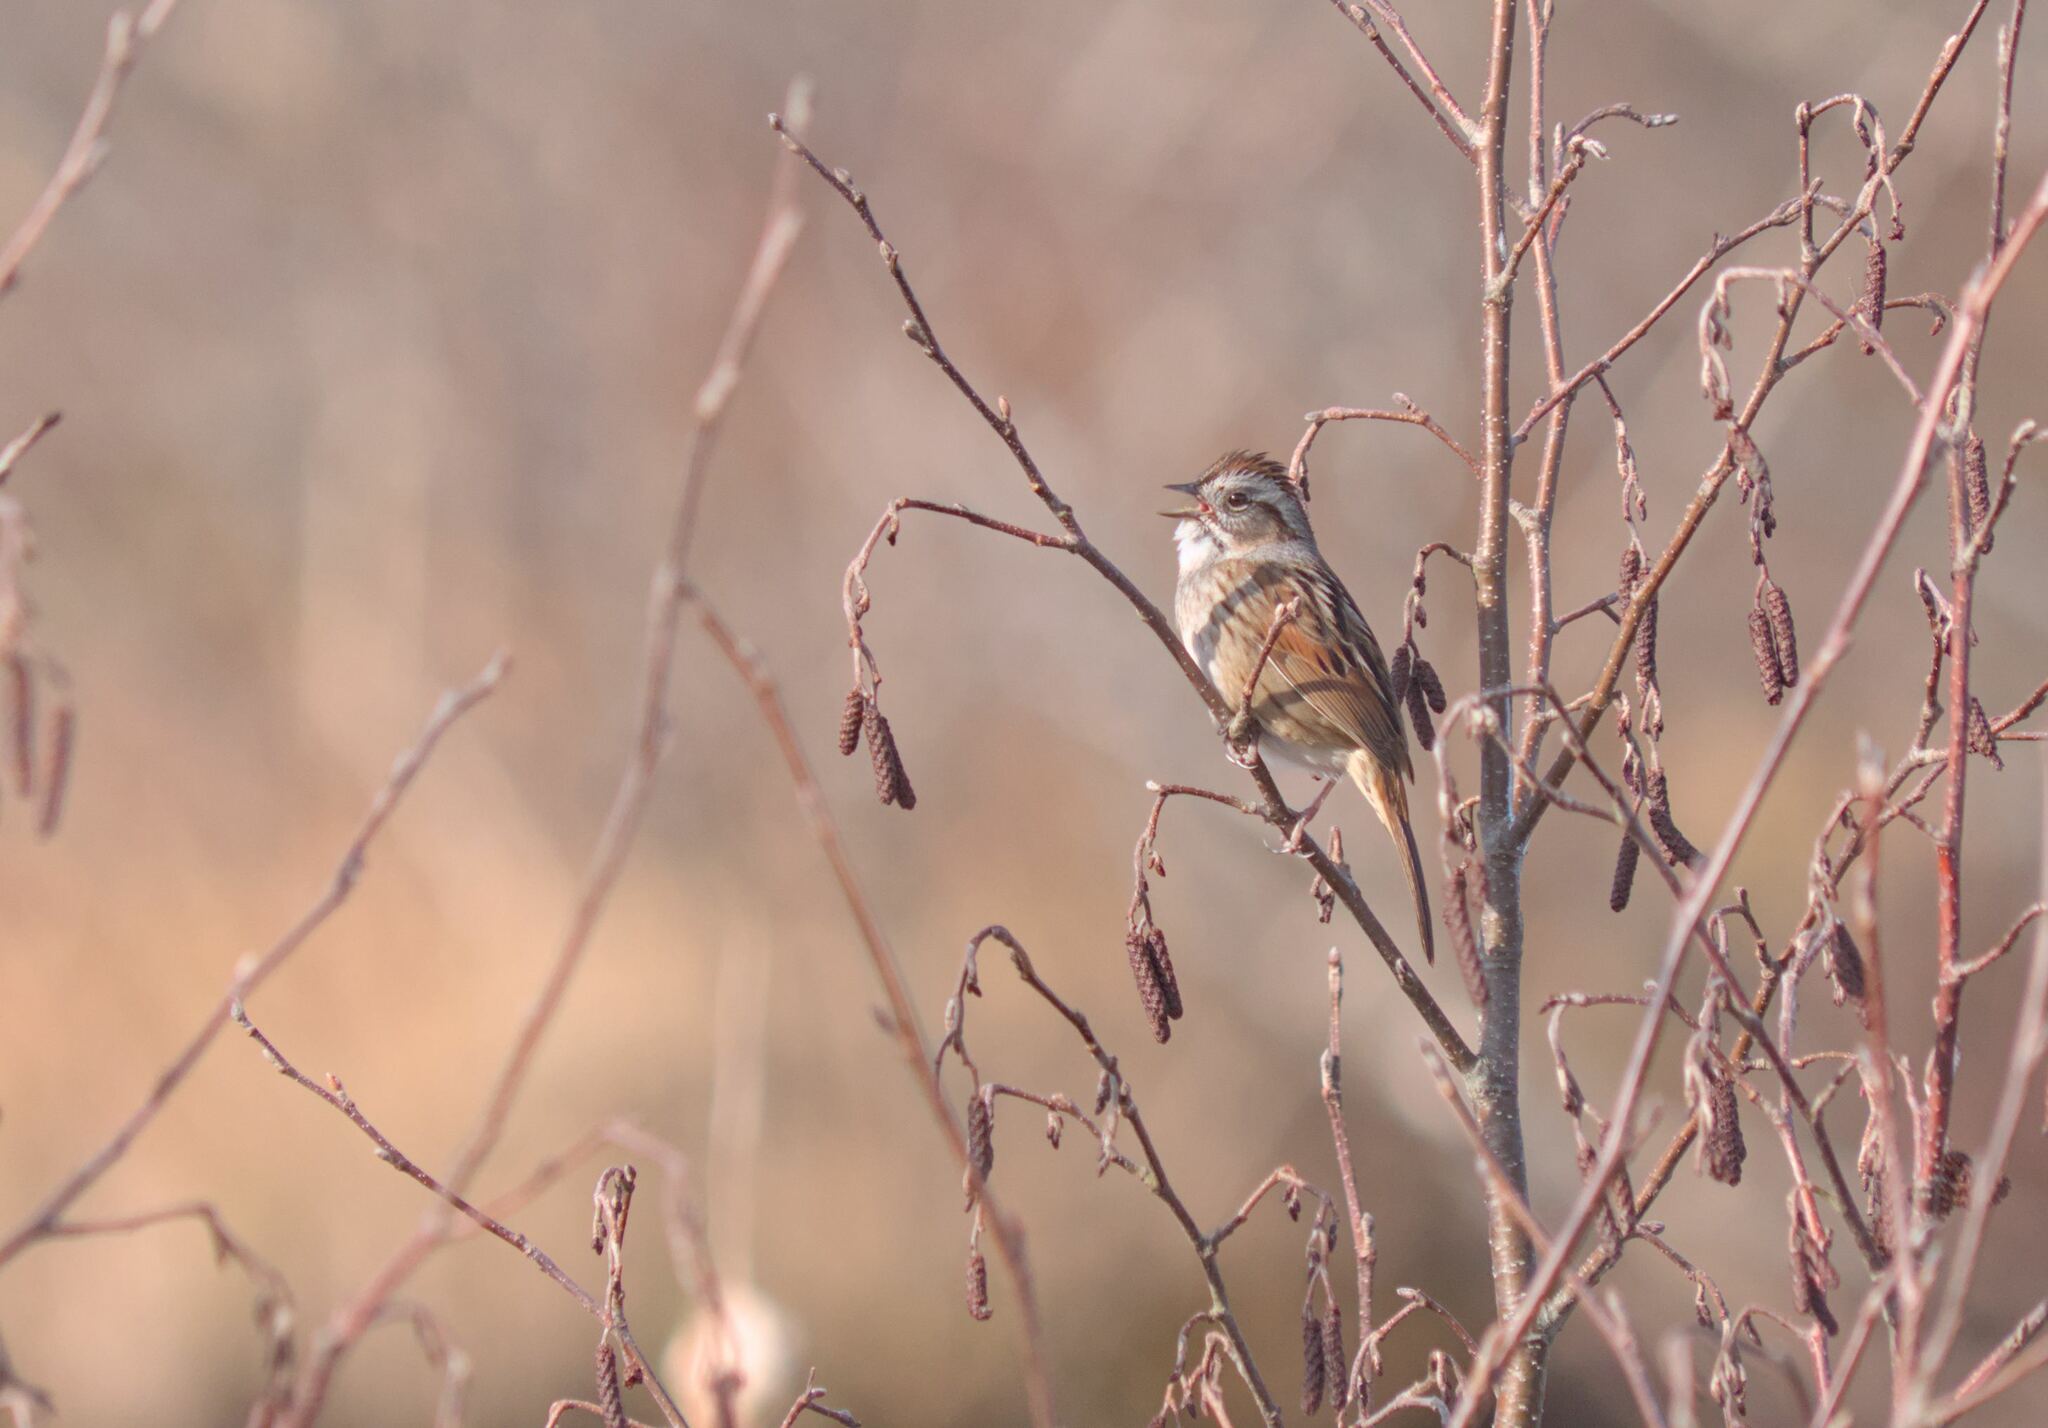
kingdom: Animalia
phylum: Chordata
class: Aves
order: Passeriformes
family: Passerellidae
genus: Melospiza
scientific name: Melospiza georgiana
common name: Swamp sparrow
